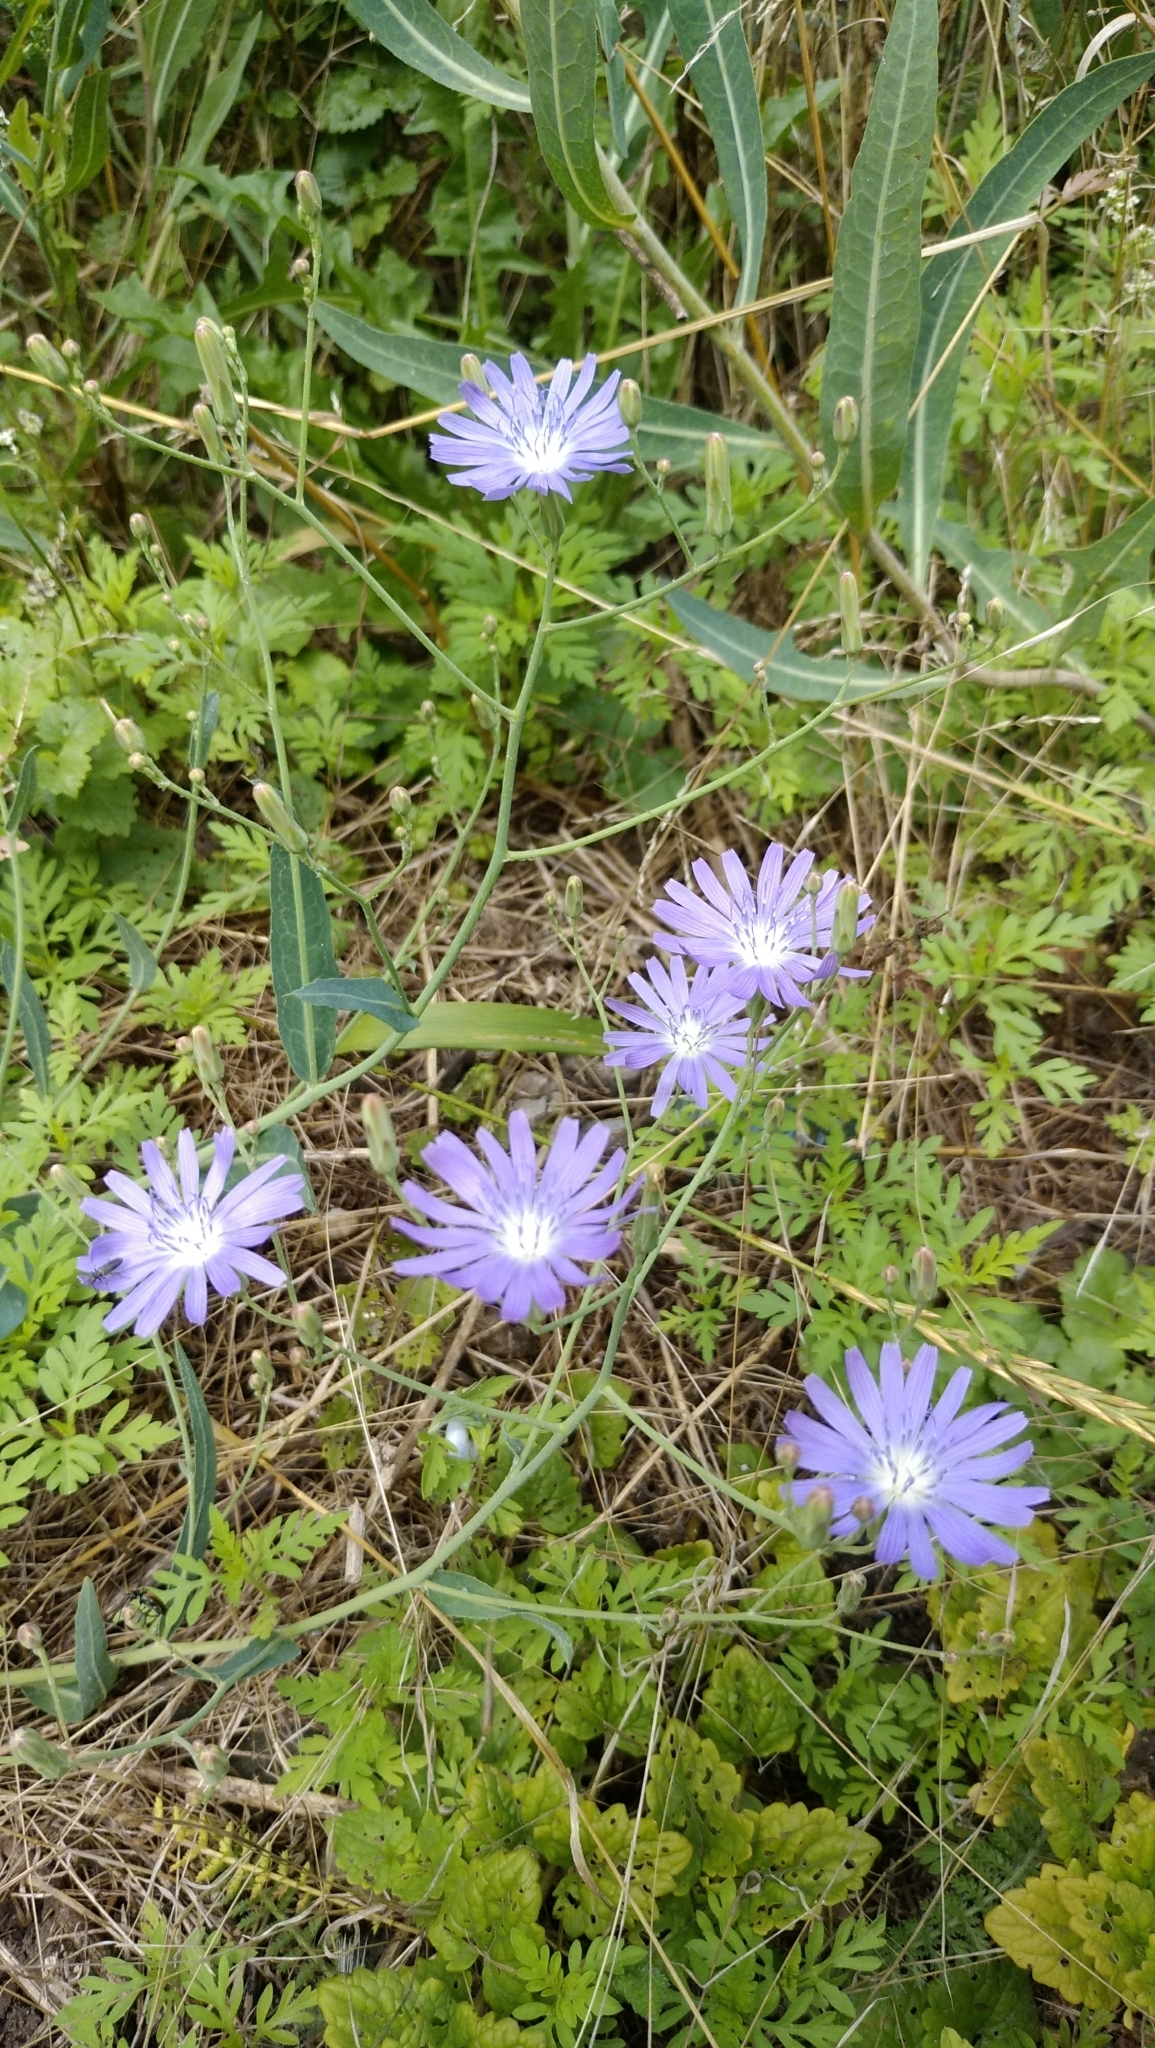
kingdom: Plantae
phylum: Tracheophyta
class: Magnoliopsida
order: Asterales
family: Asteraceae
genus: Lactuca
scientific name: Lactuca tatarica
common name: Blue lettuce
